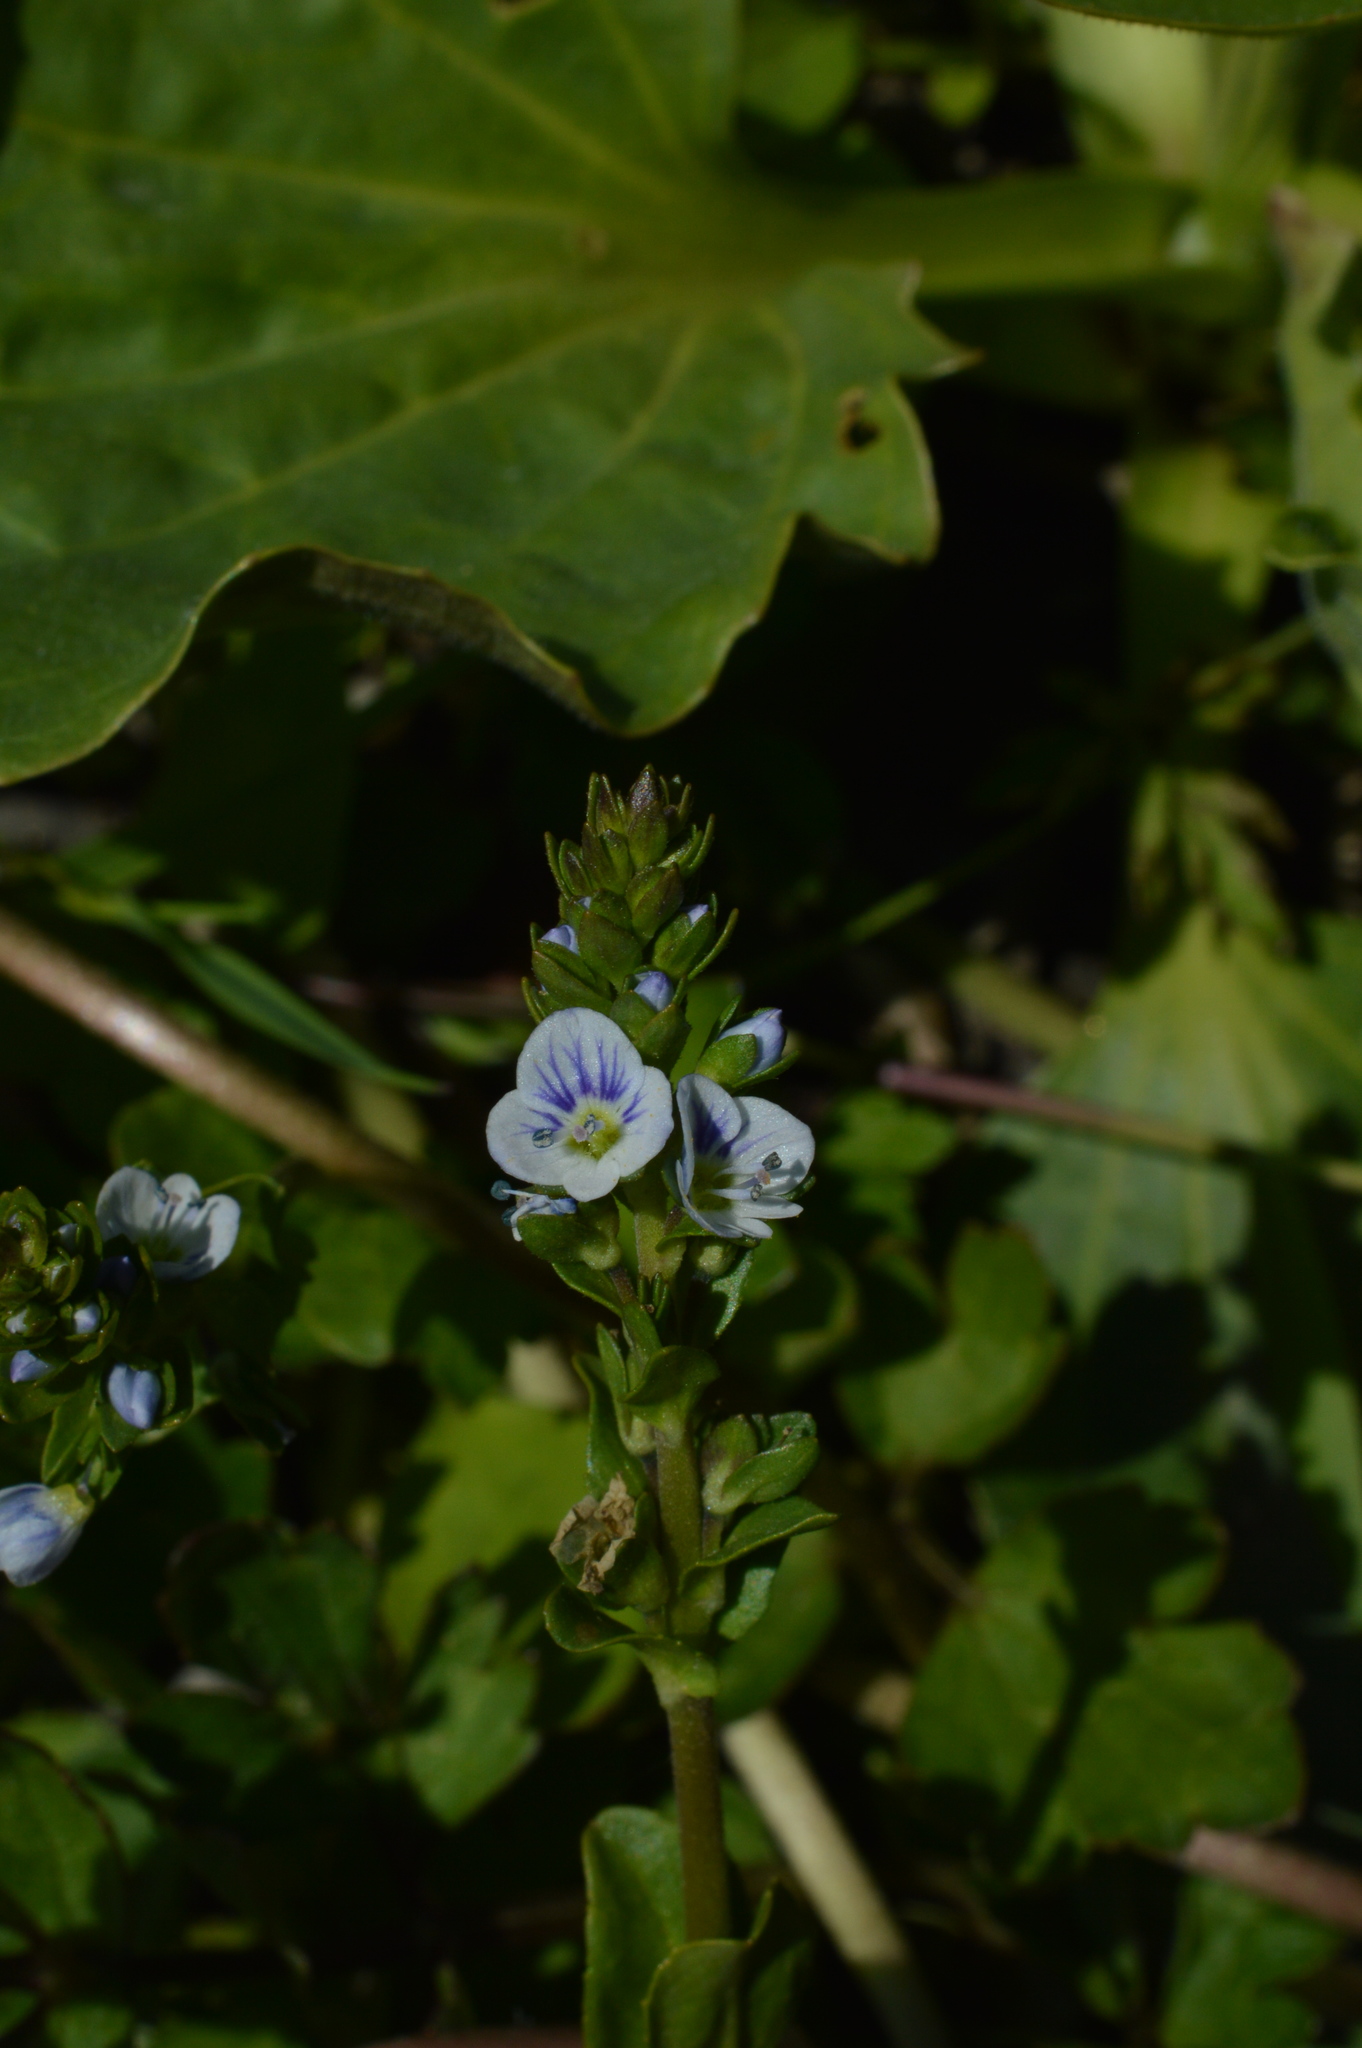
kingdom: Plantae
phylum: Tracheophyta
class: Magnoliopsida
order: Lamiales
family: Plantaginaceae
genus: Veronica
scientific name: Veronica serpyllifolia
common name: Thyme-leaved speedwell
